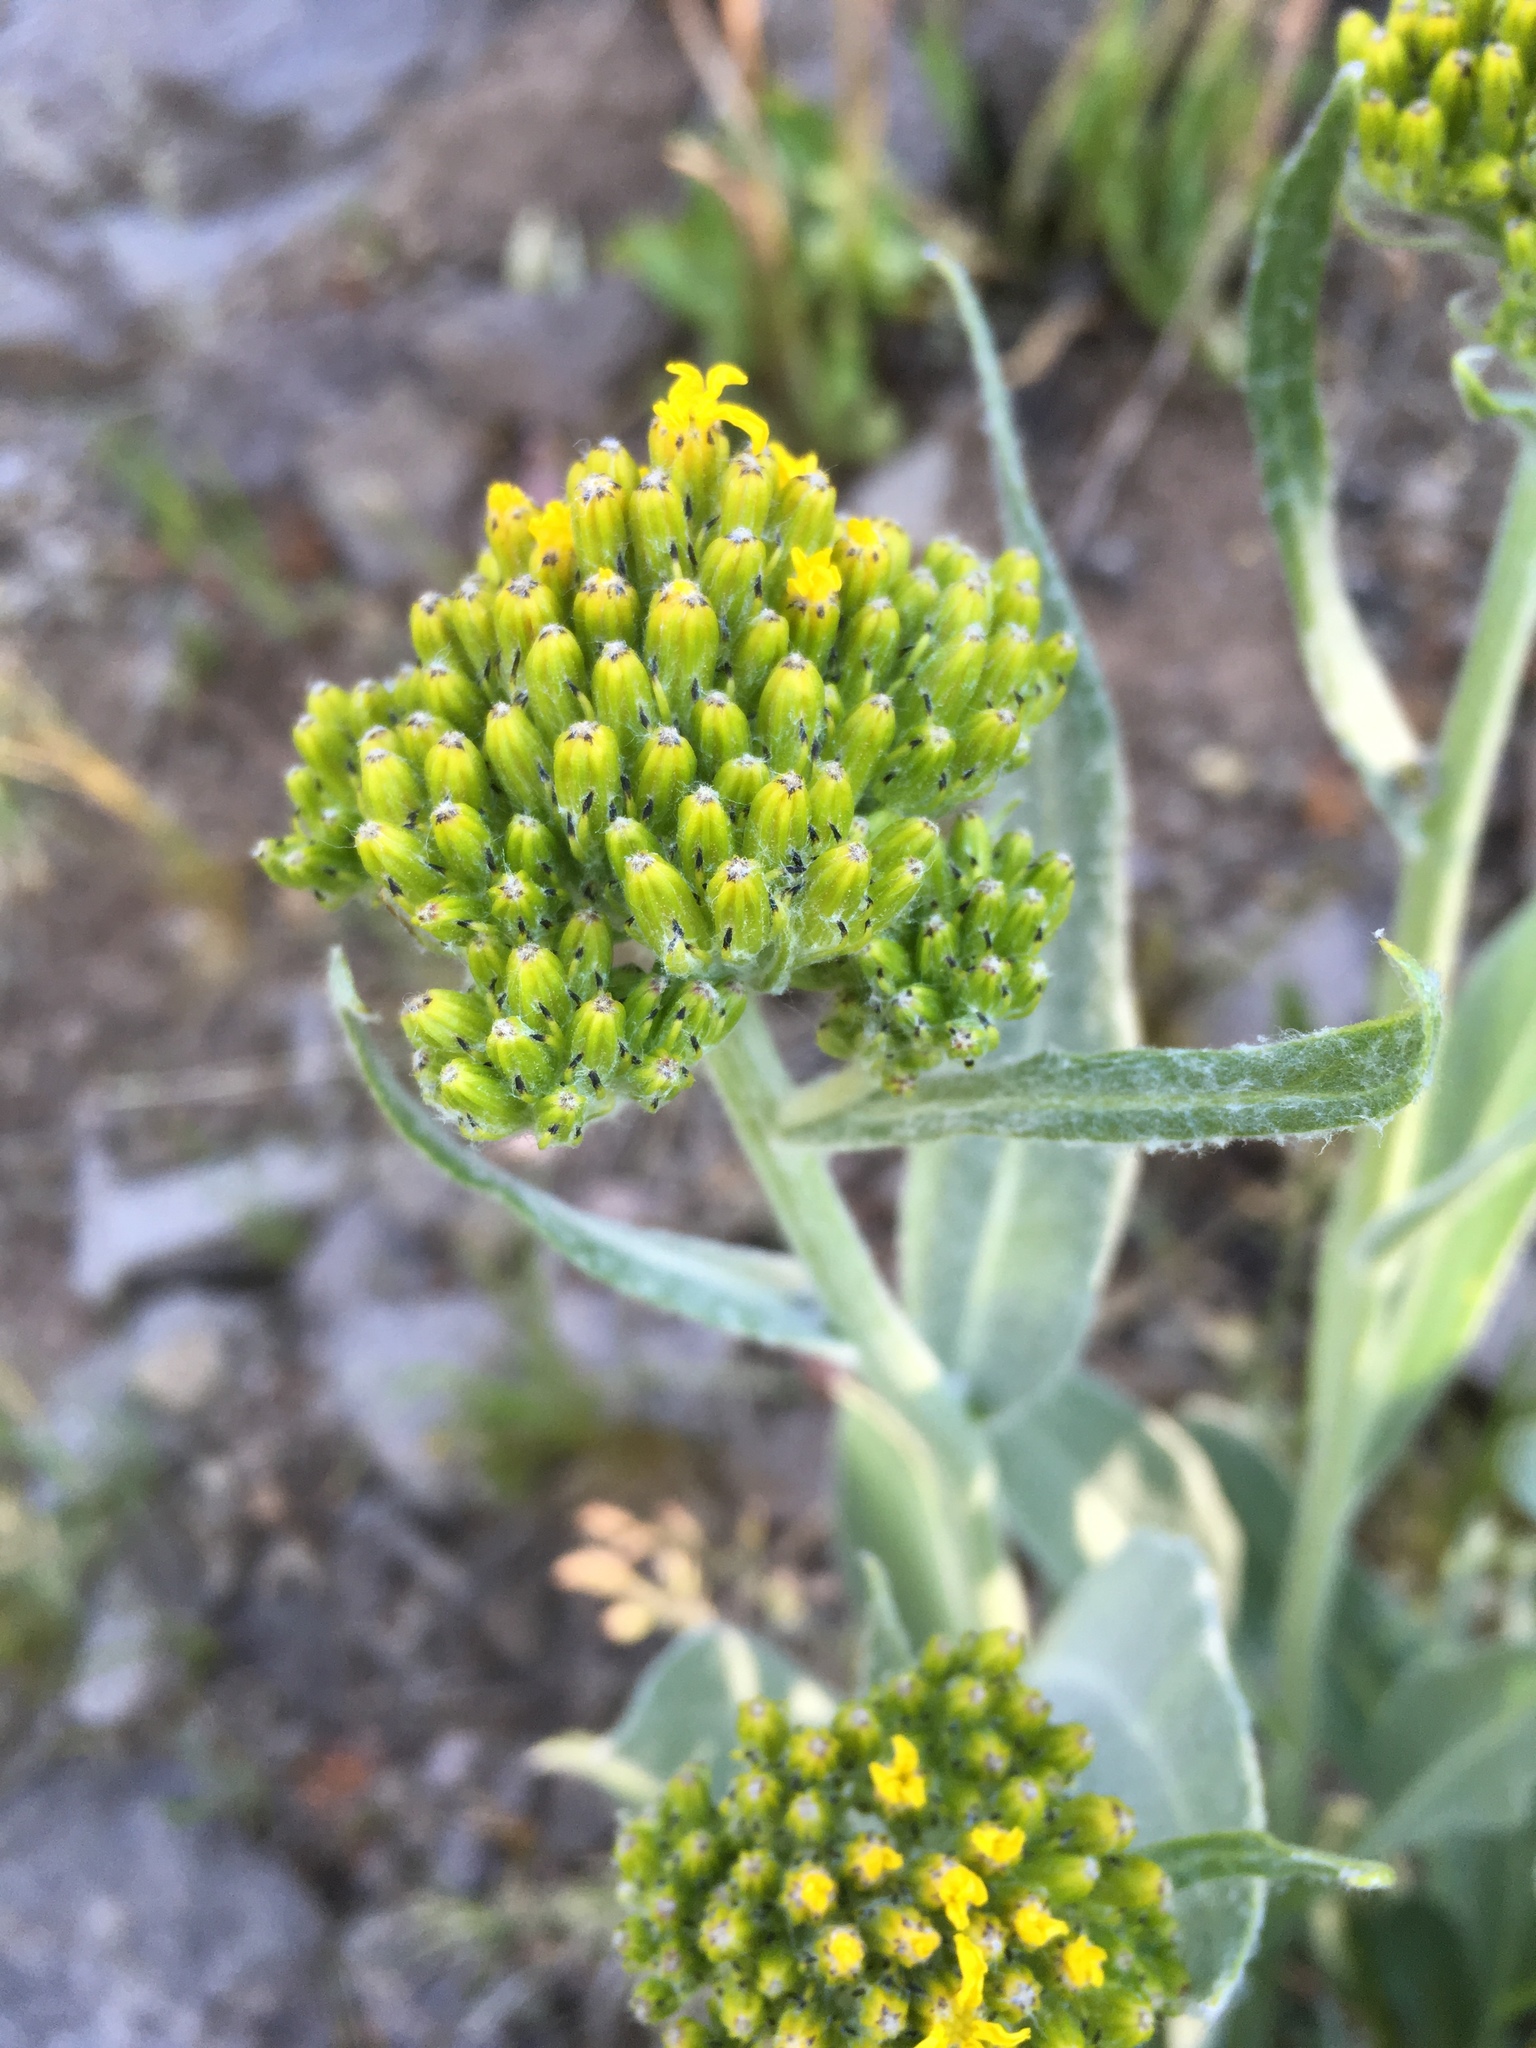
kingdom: Plantae
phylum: Tracheophyta
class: Magnoliopsida
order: Asterales
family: Asteraceae
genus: Senecio
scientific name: Senecio atratus
